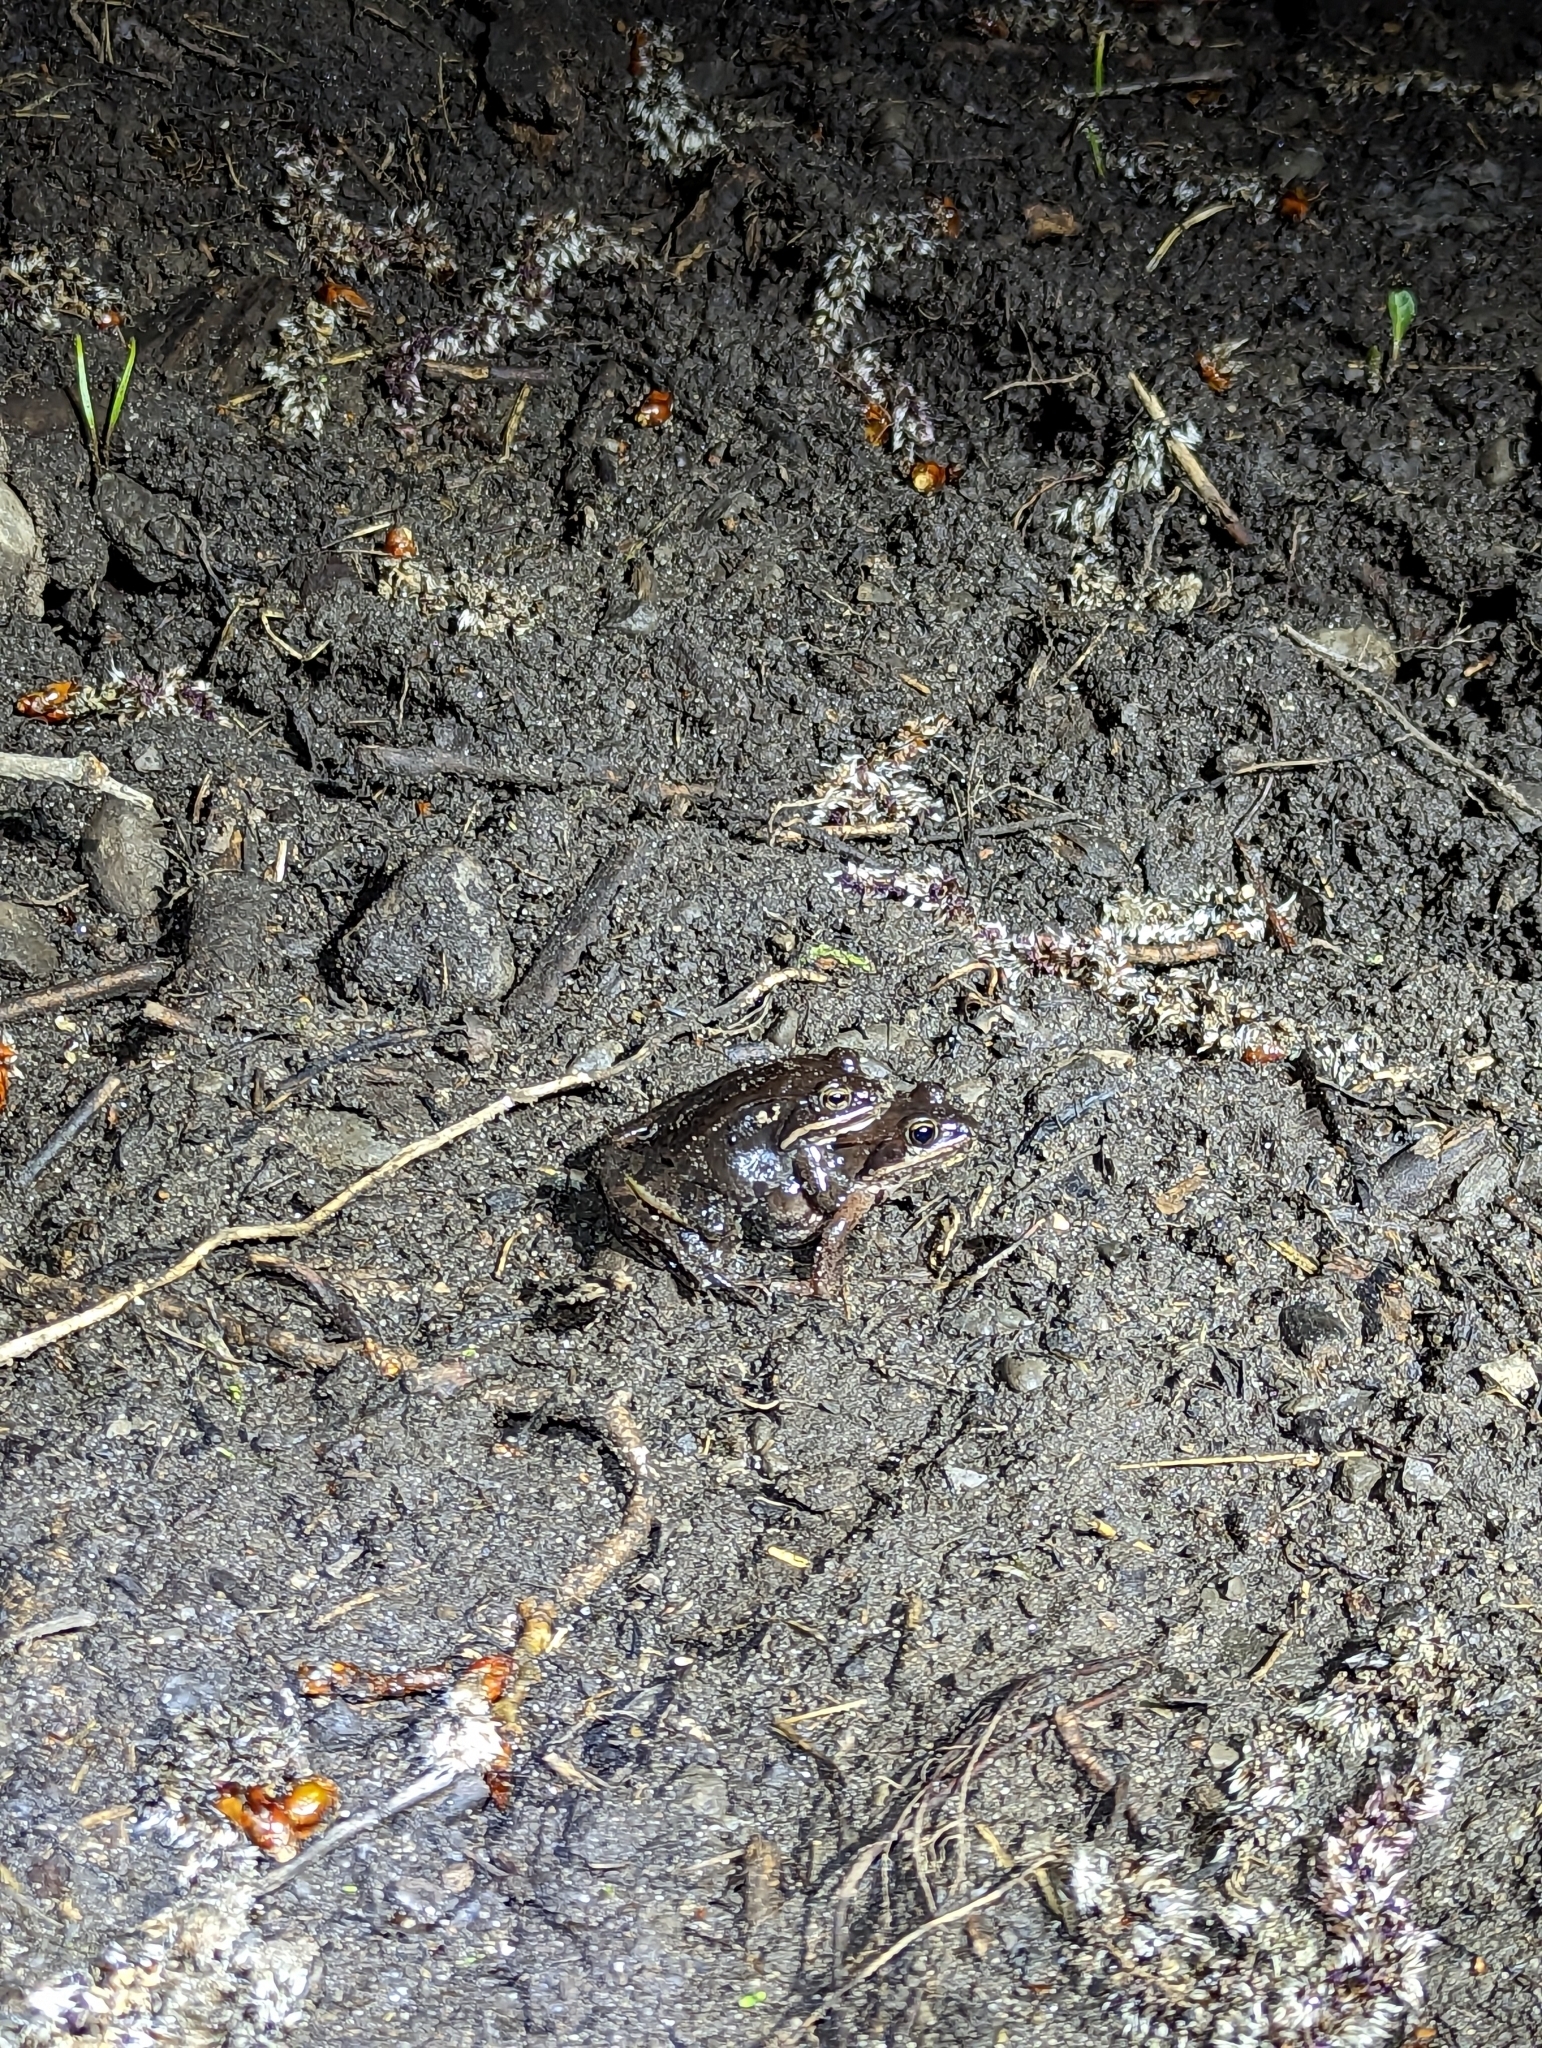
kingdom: Animalia
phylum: Chordata
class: Amphibia
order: Anura
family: Ranidae
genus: Lithobates
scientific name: Lithobates sylvaticus
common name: Wood frog
